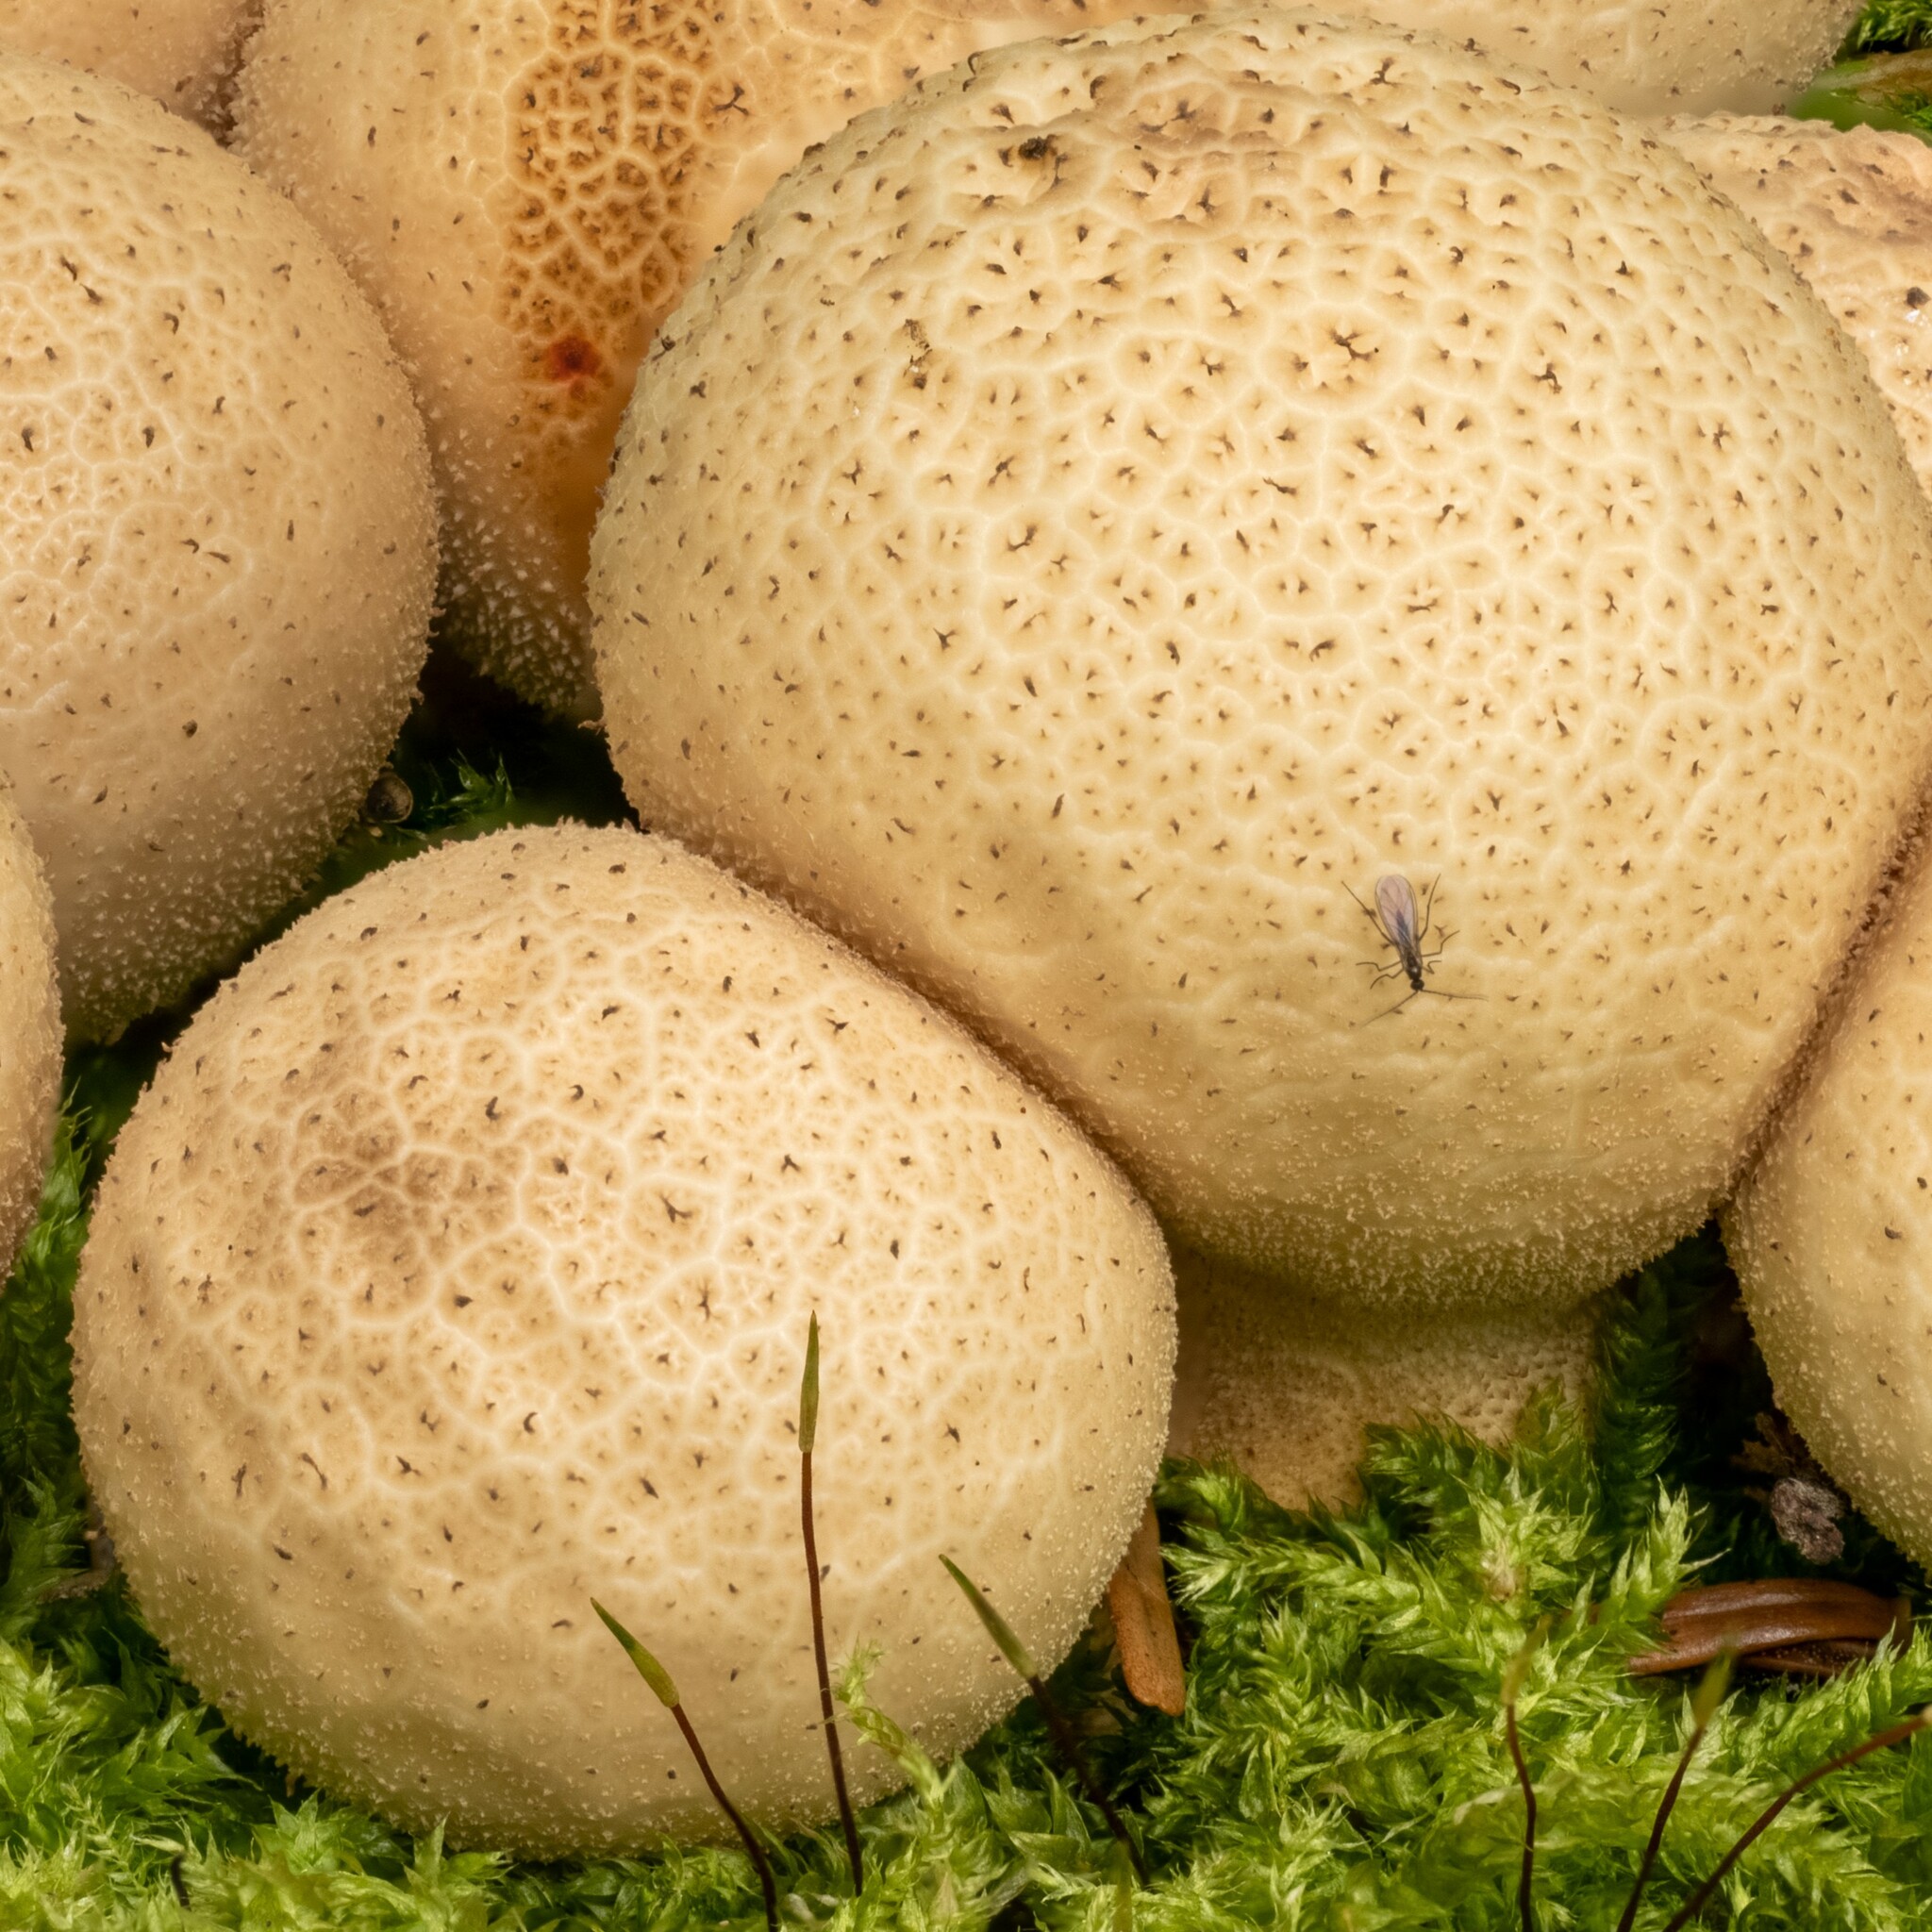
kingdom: Fungi
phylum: Basidiomycota
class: Agaricomycetes
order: Agaricales
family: Lycoperdaceae
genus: Apioperdon
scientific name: Apioperdon pyriforme
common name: Pear-shaped puffball
